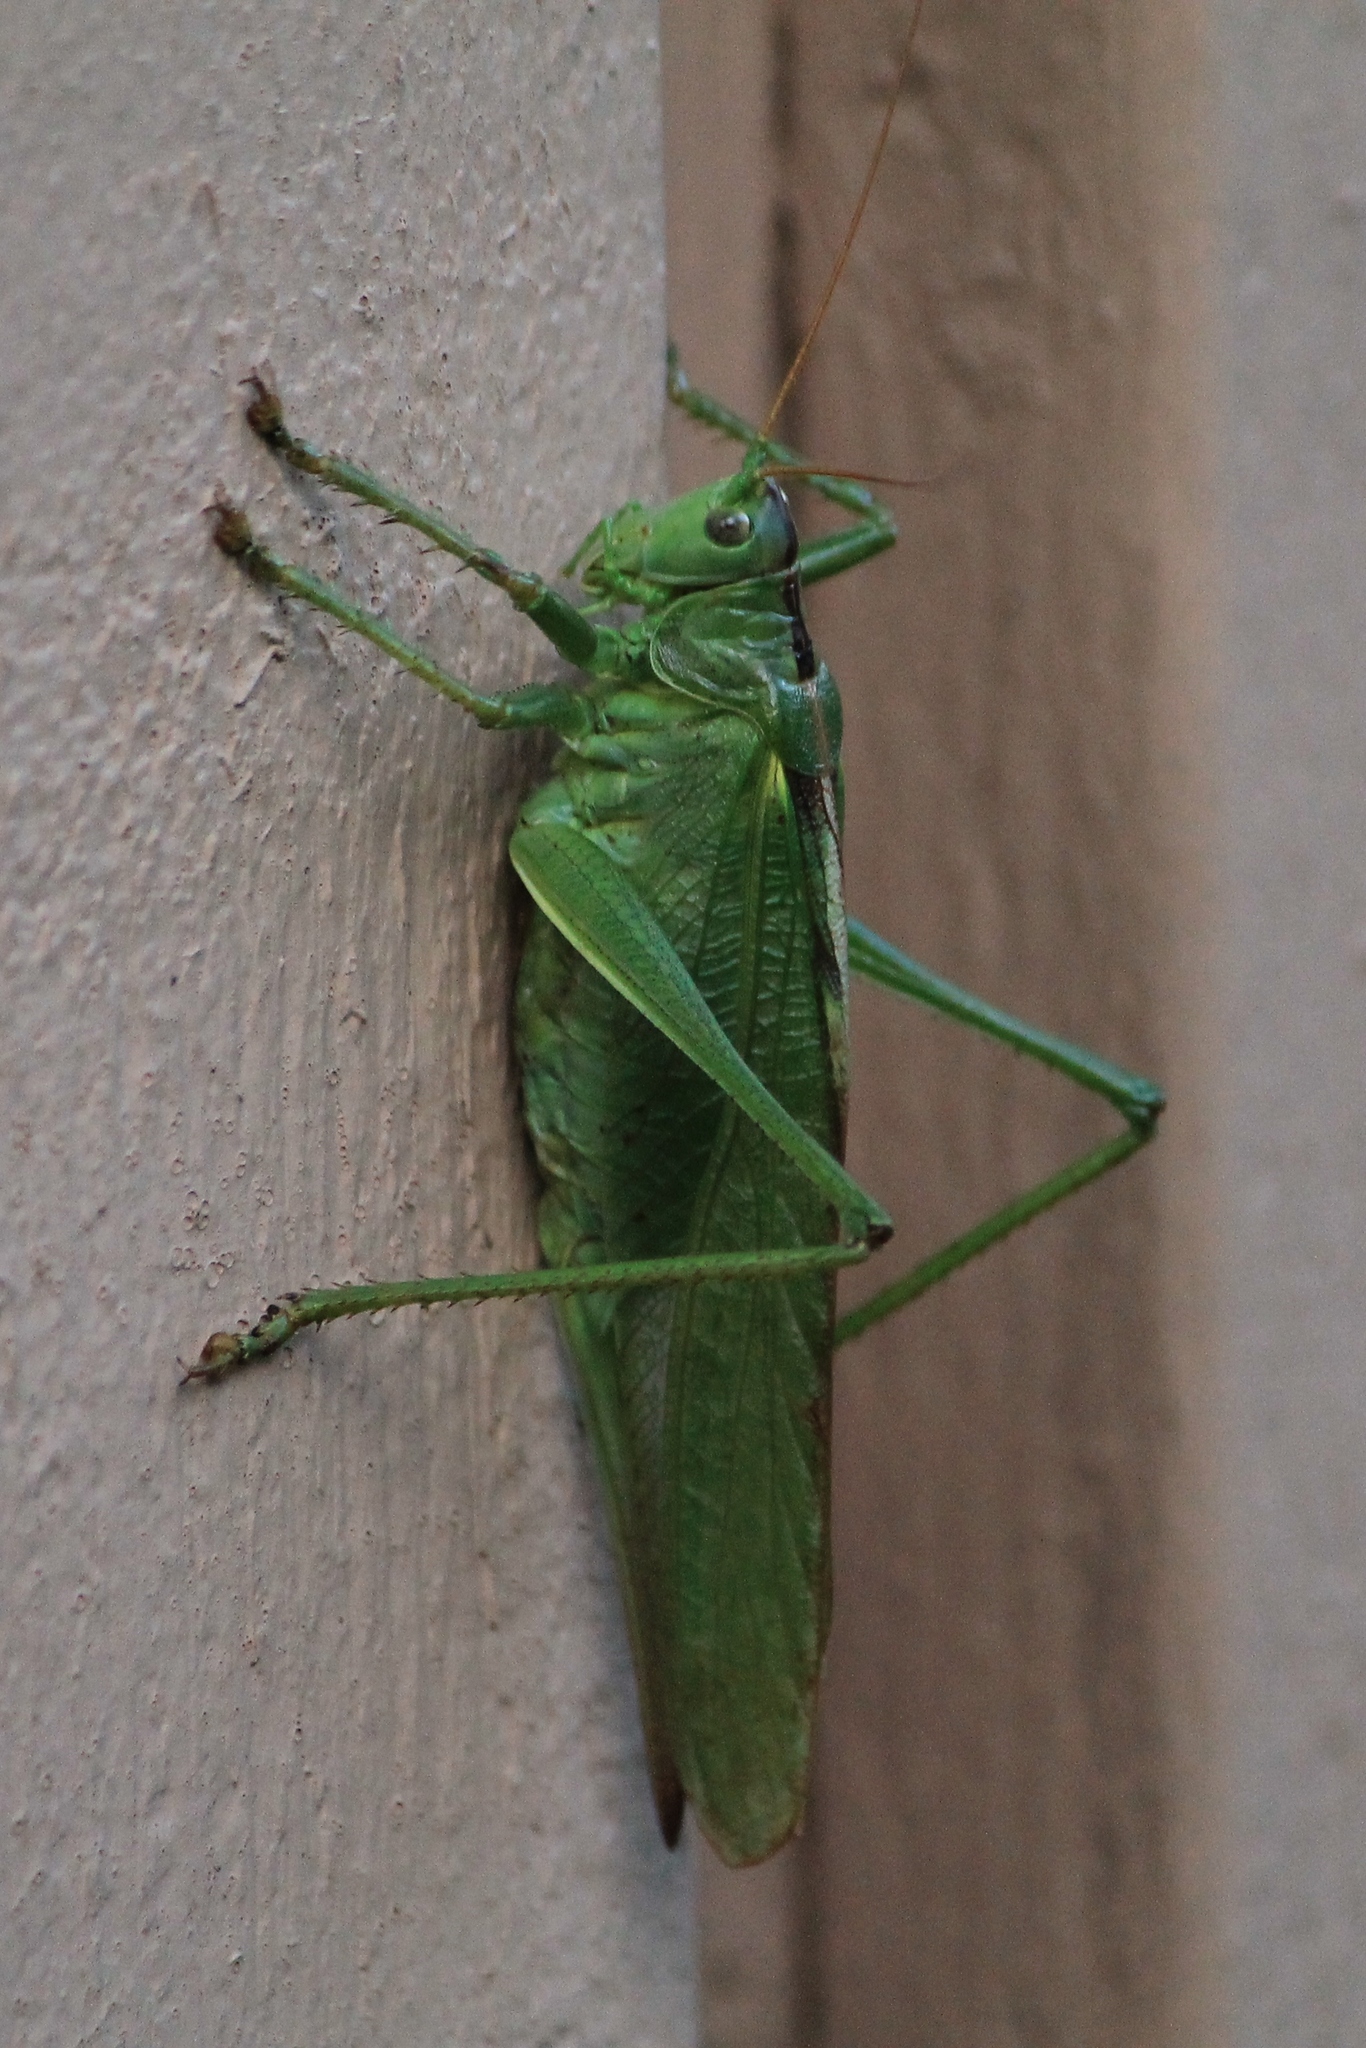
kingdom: Animalia
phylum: Arthropoda
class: Insecta
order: Orthoptera
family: Tettigoniidae
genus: Tettigonia
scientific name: Tettigonia viridissima
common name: Great green bush-cricket
